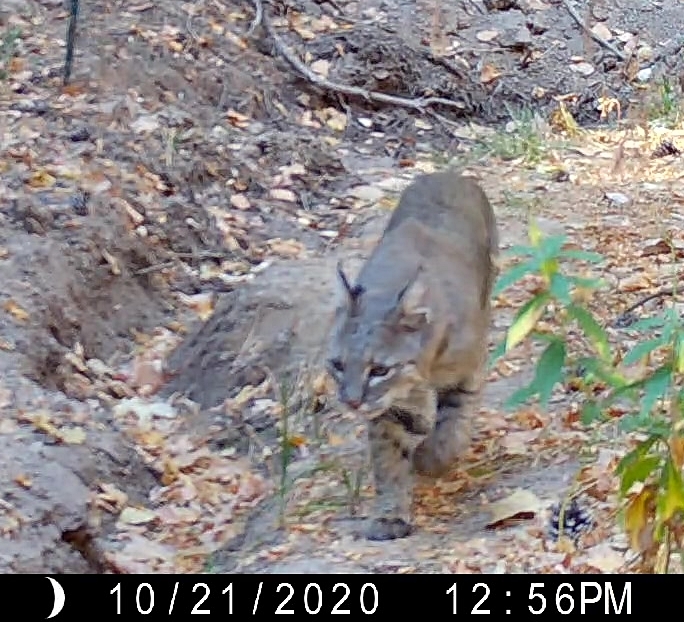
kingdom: Animalia
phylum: Chordata
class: Mammalia
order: Carnivora
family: Felidae
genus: Lynx
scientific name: Lynx rufus
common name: Bobcat
